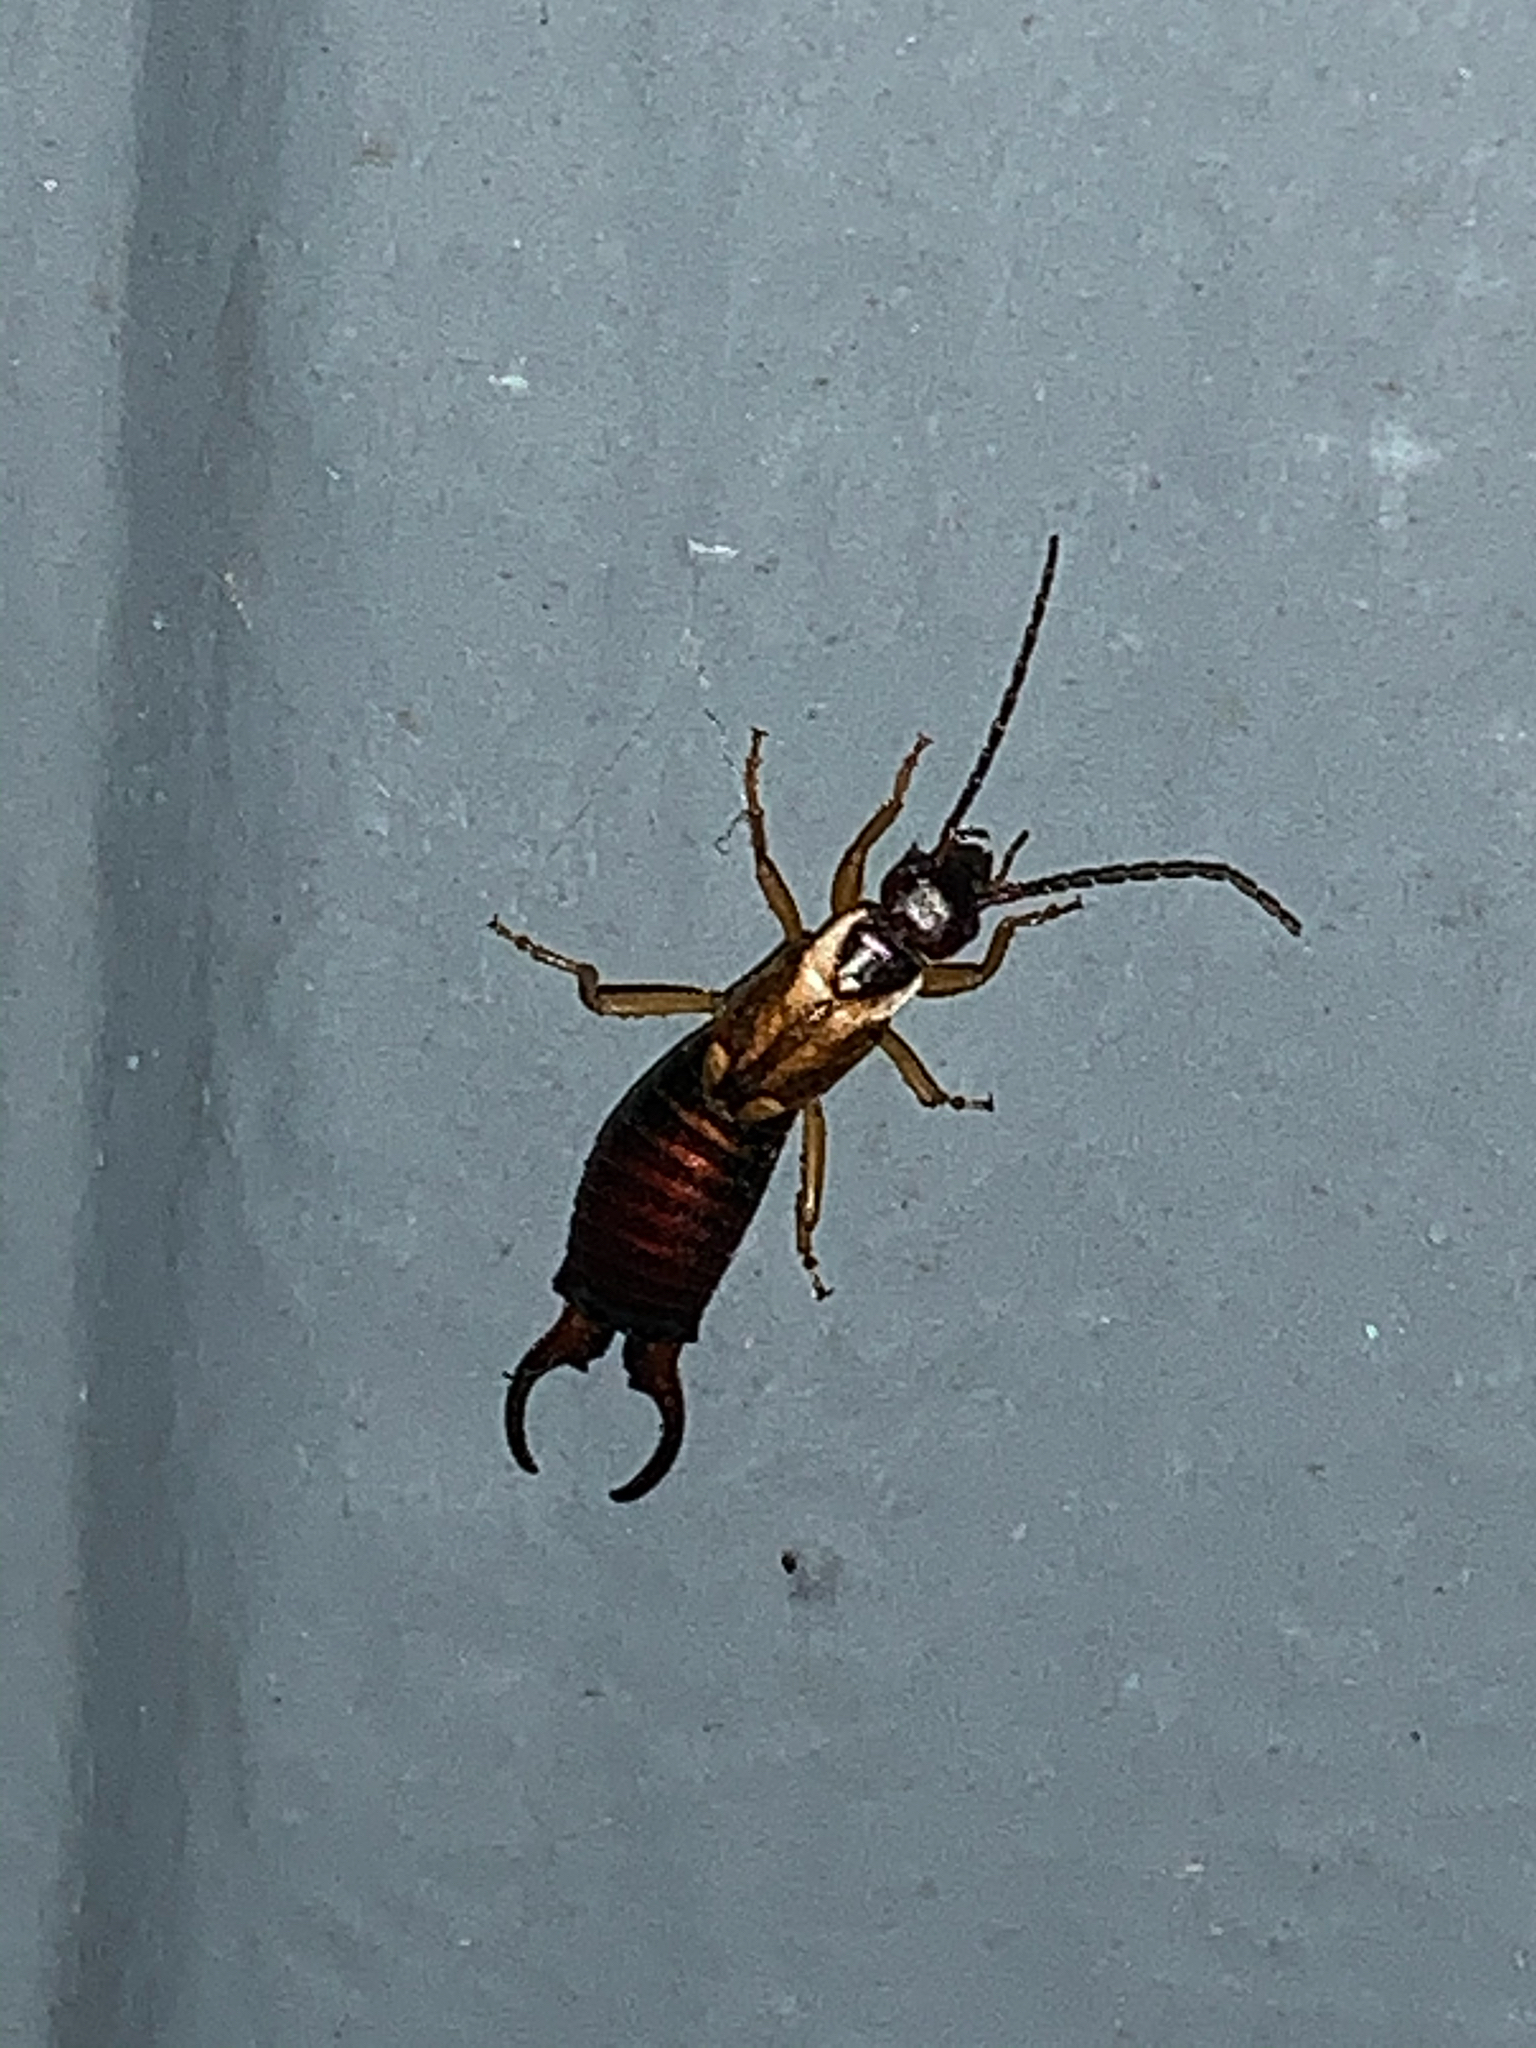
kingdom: Animalia
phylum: Arthropoda
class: Insecta
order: Dermaptera
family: Forficulidae
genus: Forficula
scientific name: Forficula
